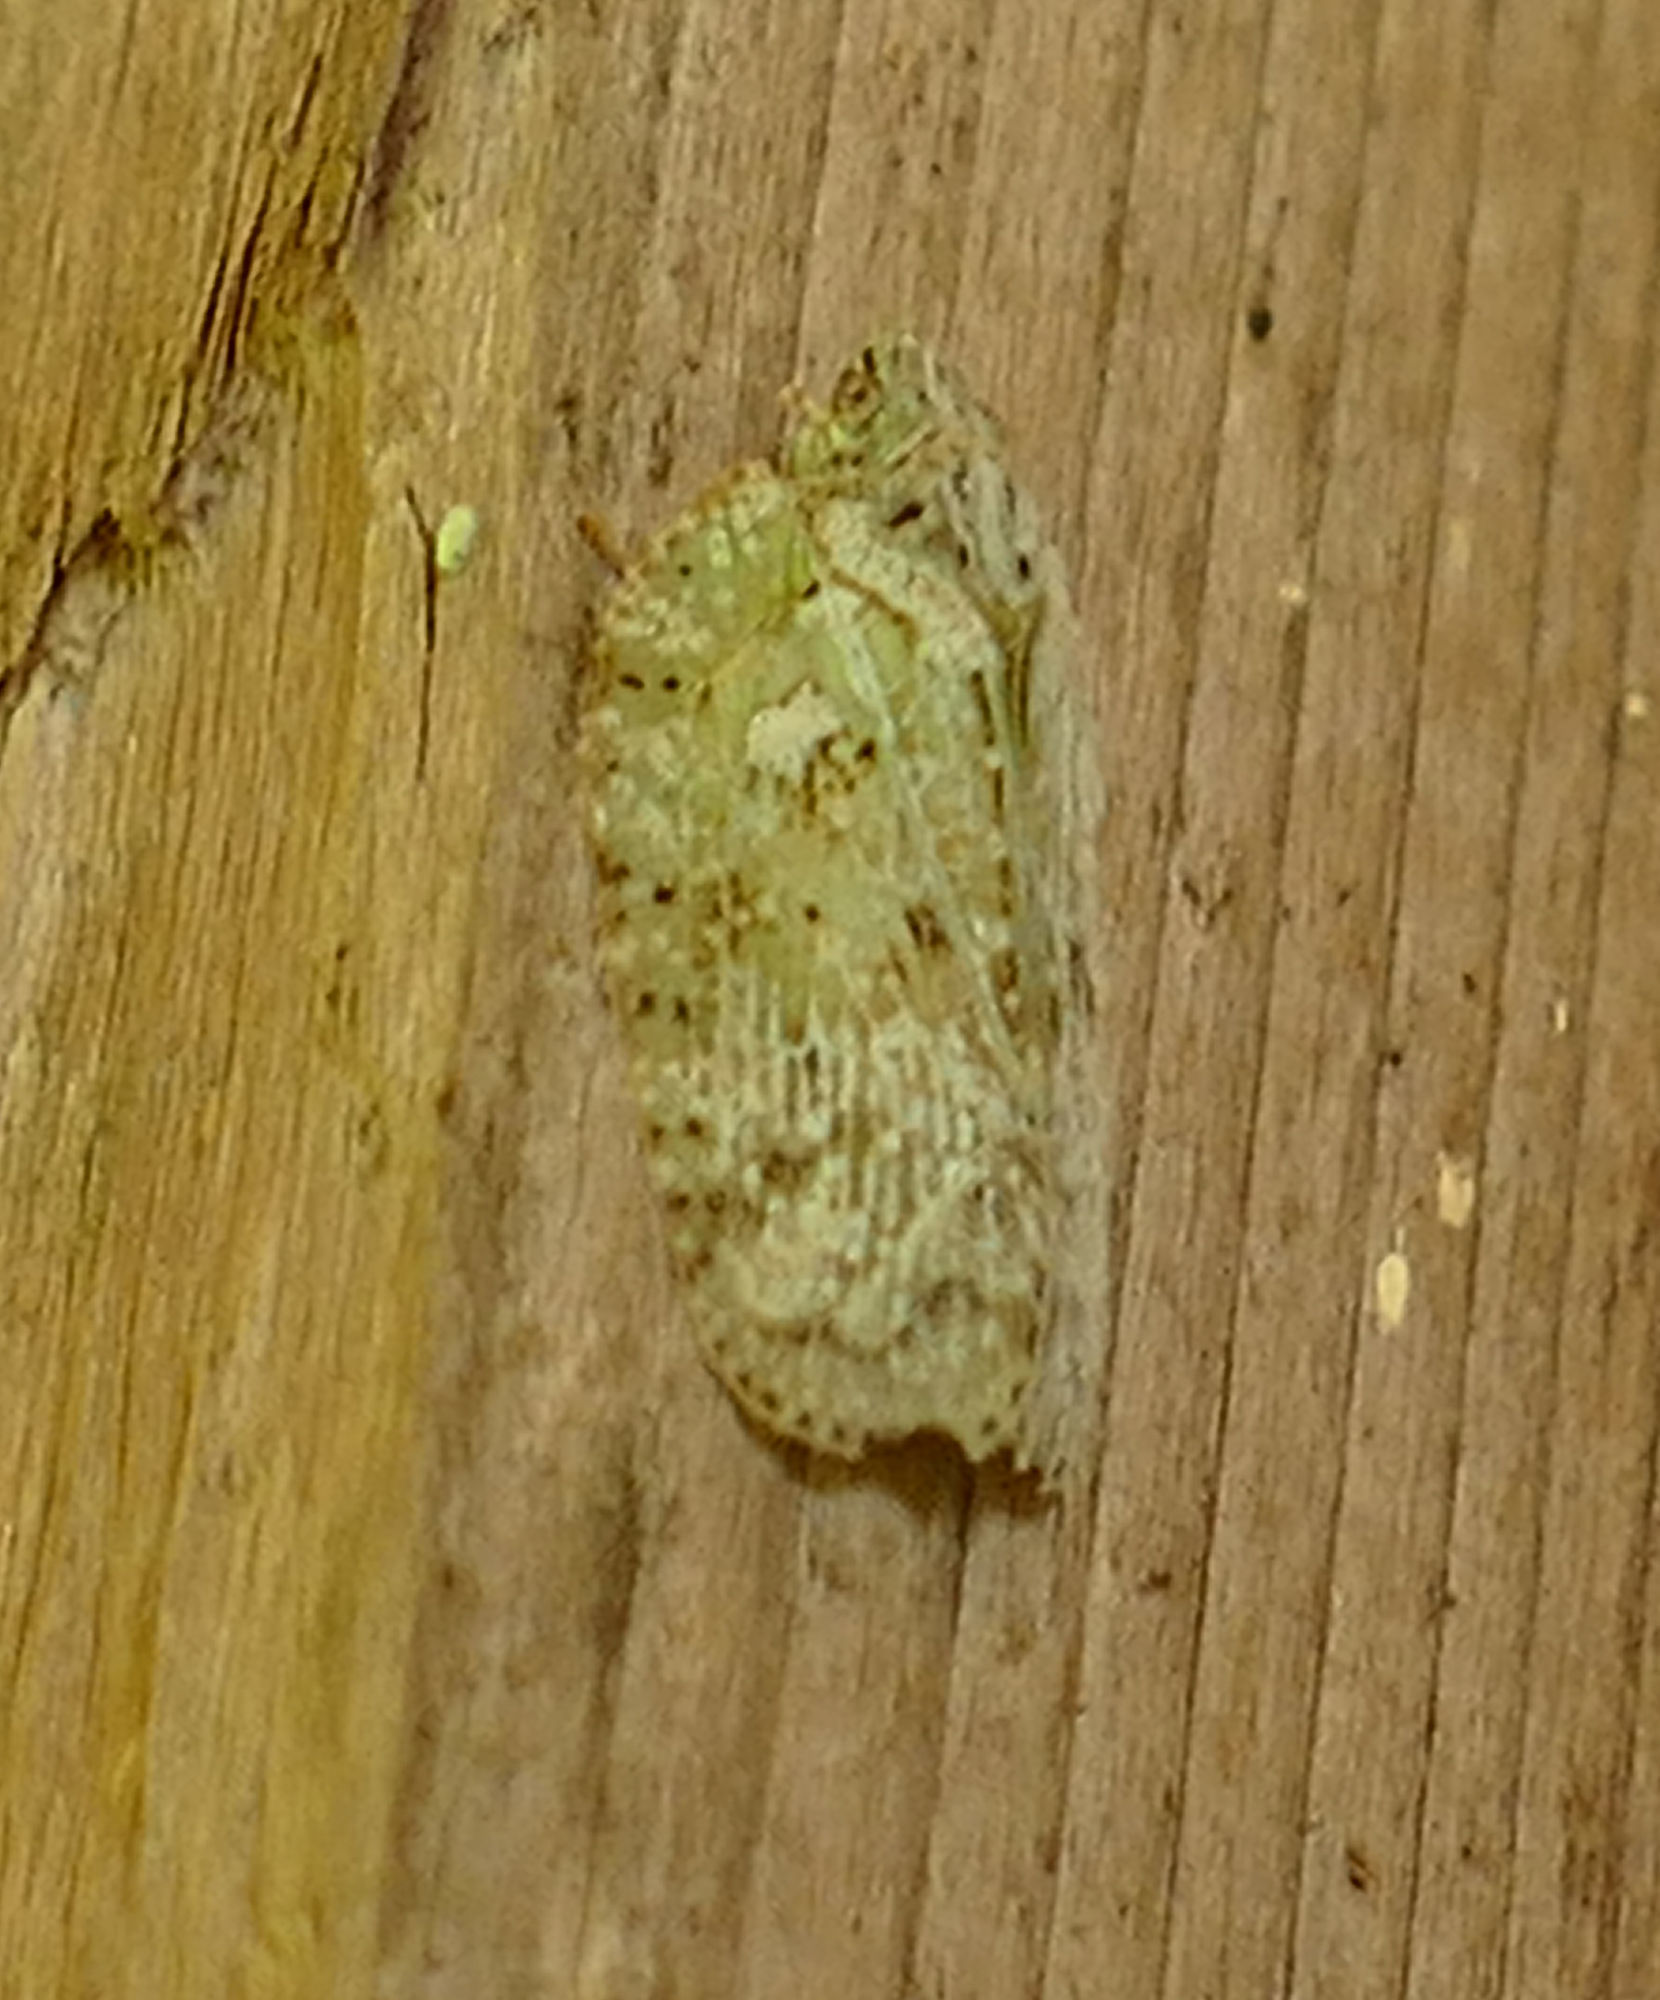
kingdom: Animalia
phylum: Arthropoda
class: Insecta
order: Hemiptera
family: Flatidae
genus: Flatoidinus
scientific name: Flatoidinus punctatus
